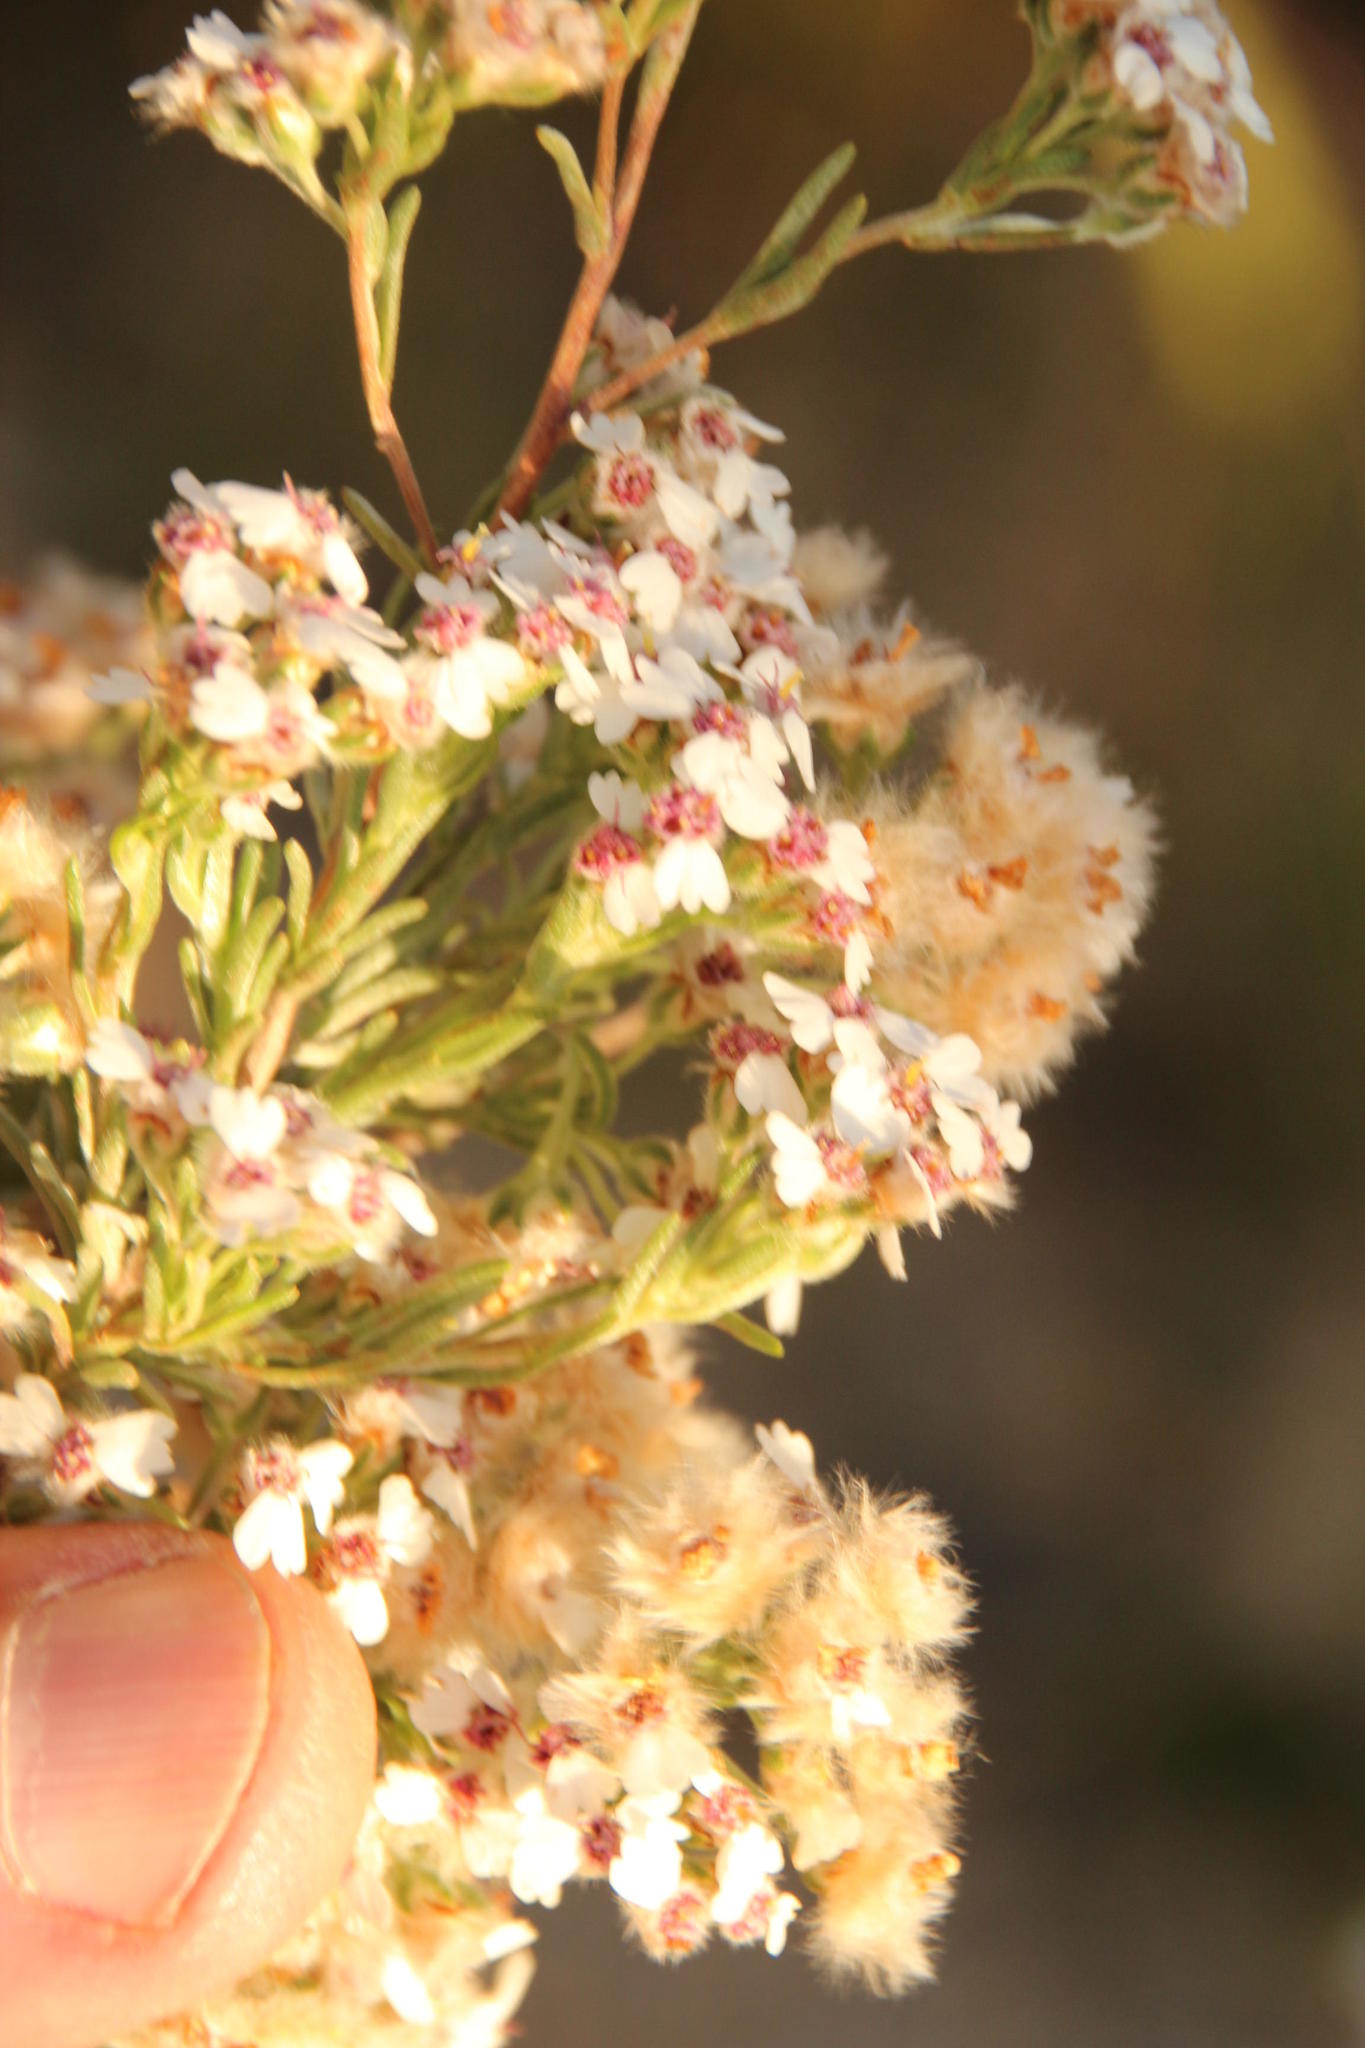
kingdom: Plantae
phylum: Tracheophyta
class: Magnoliopsida
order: Asterales
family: Asteraceae
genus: Eriocephalus
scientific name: Eriocephalus africanus
